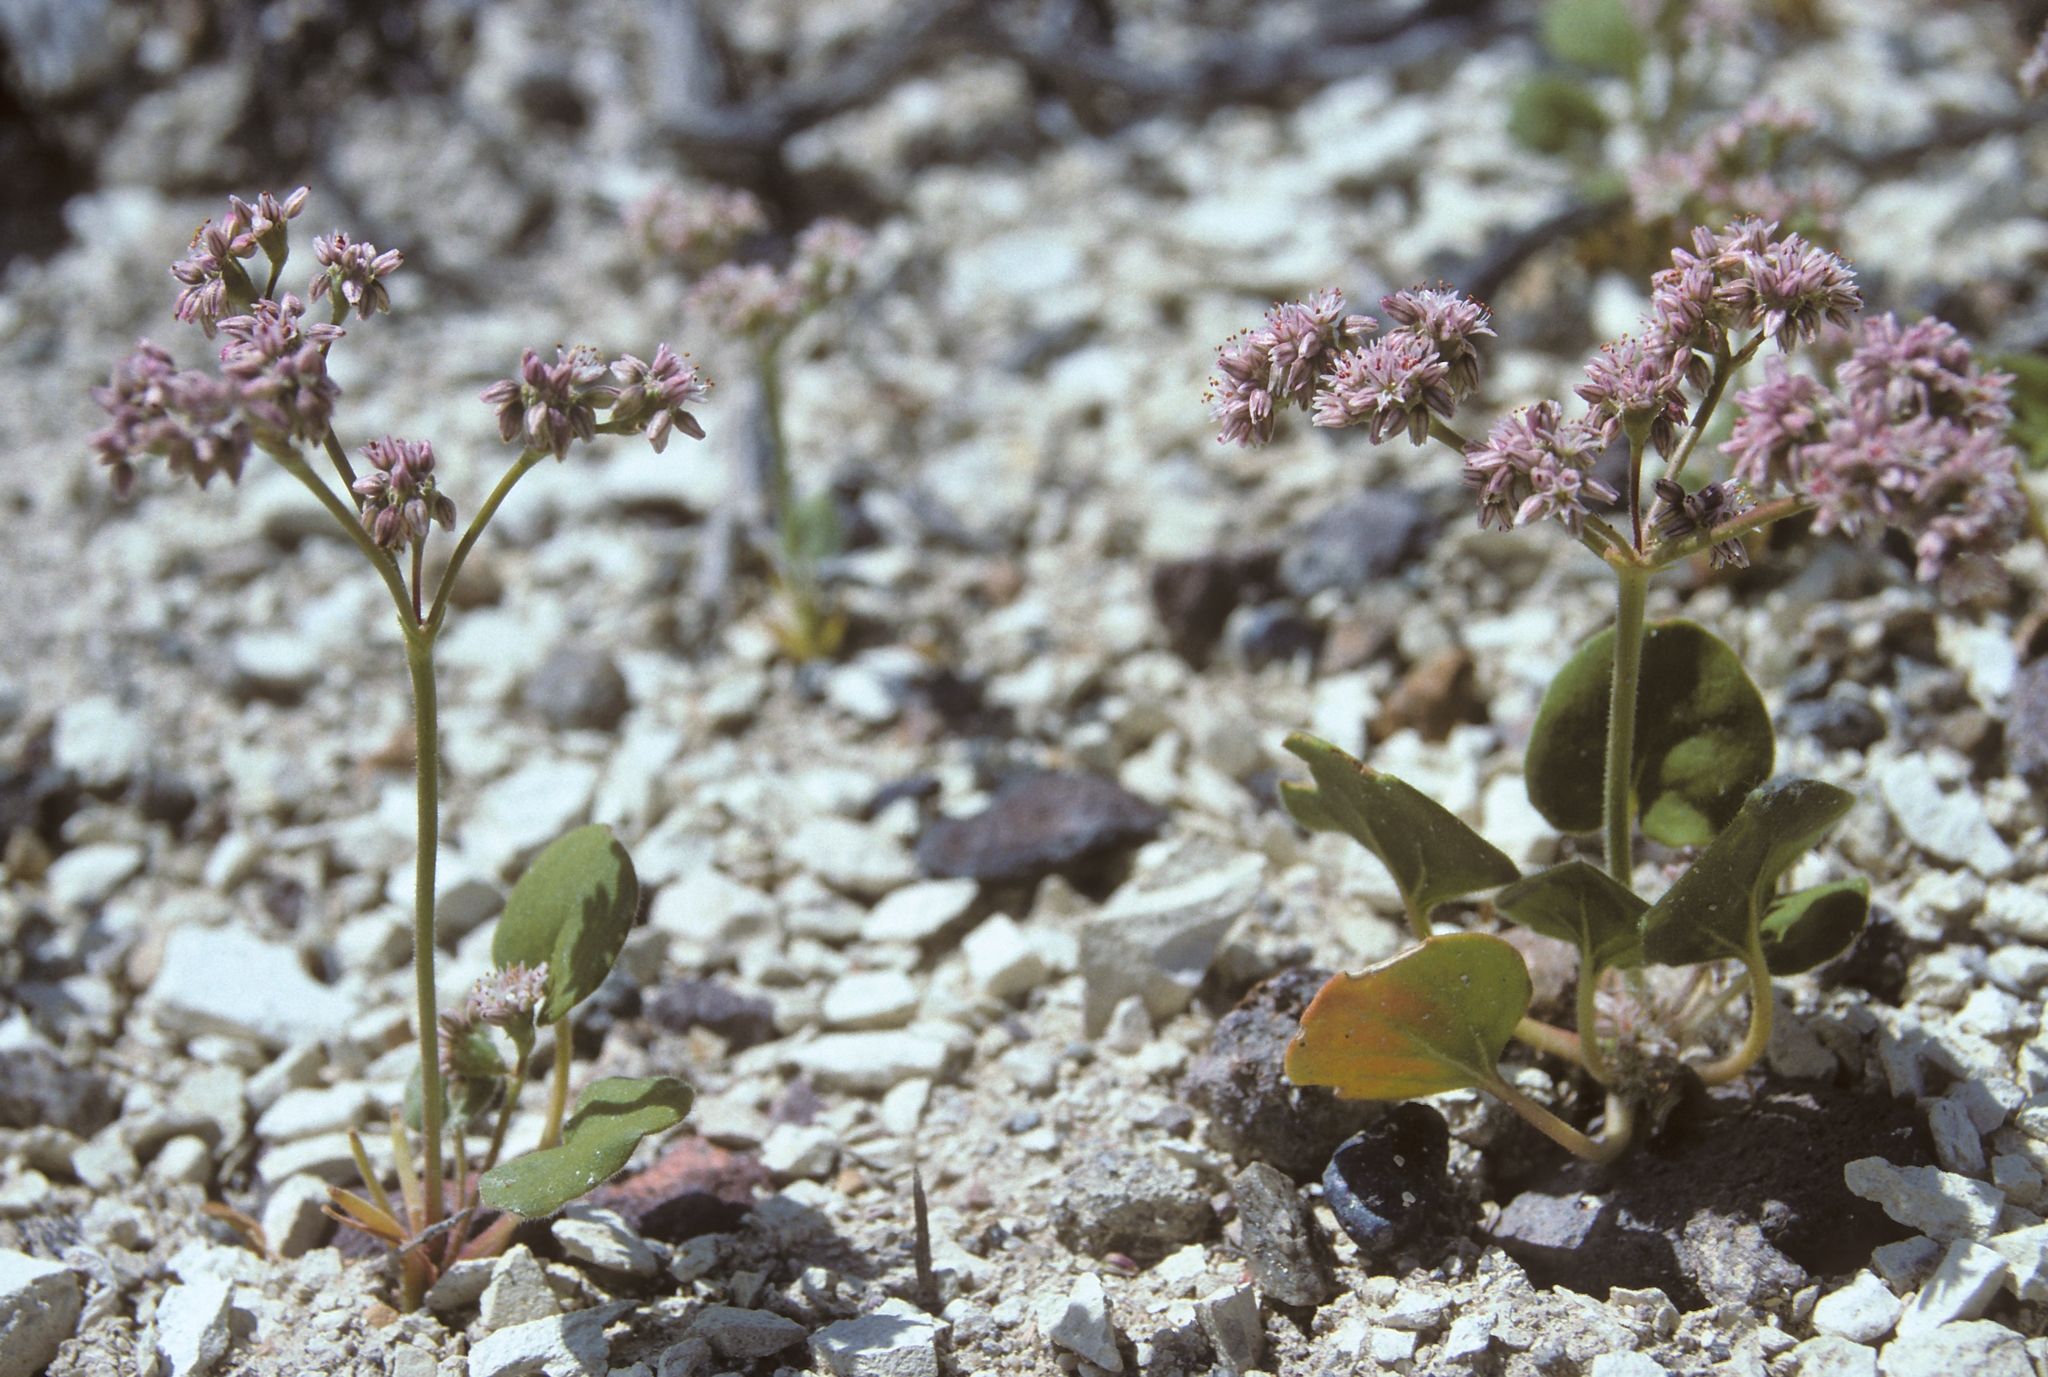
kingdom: Plantae
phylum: Tracheophyta
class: Magnoliopsida
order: Caryophyllales
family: Polygonaceae
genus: Eriogonum
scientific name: Eriogonum lemmonii
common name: Lemmon's wild buckwheat
